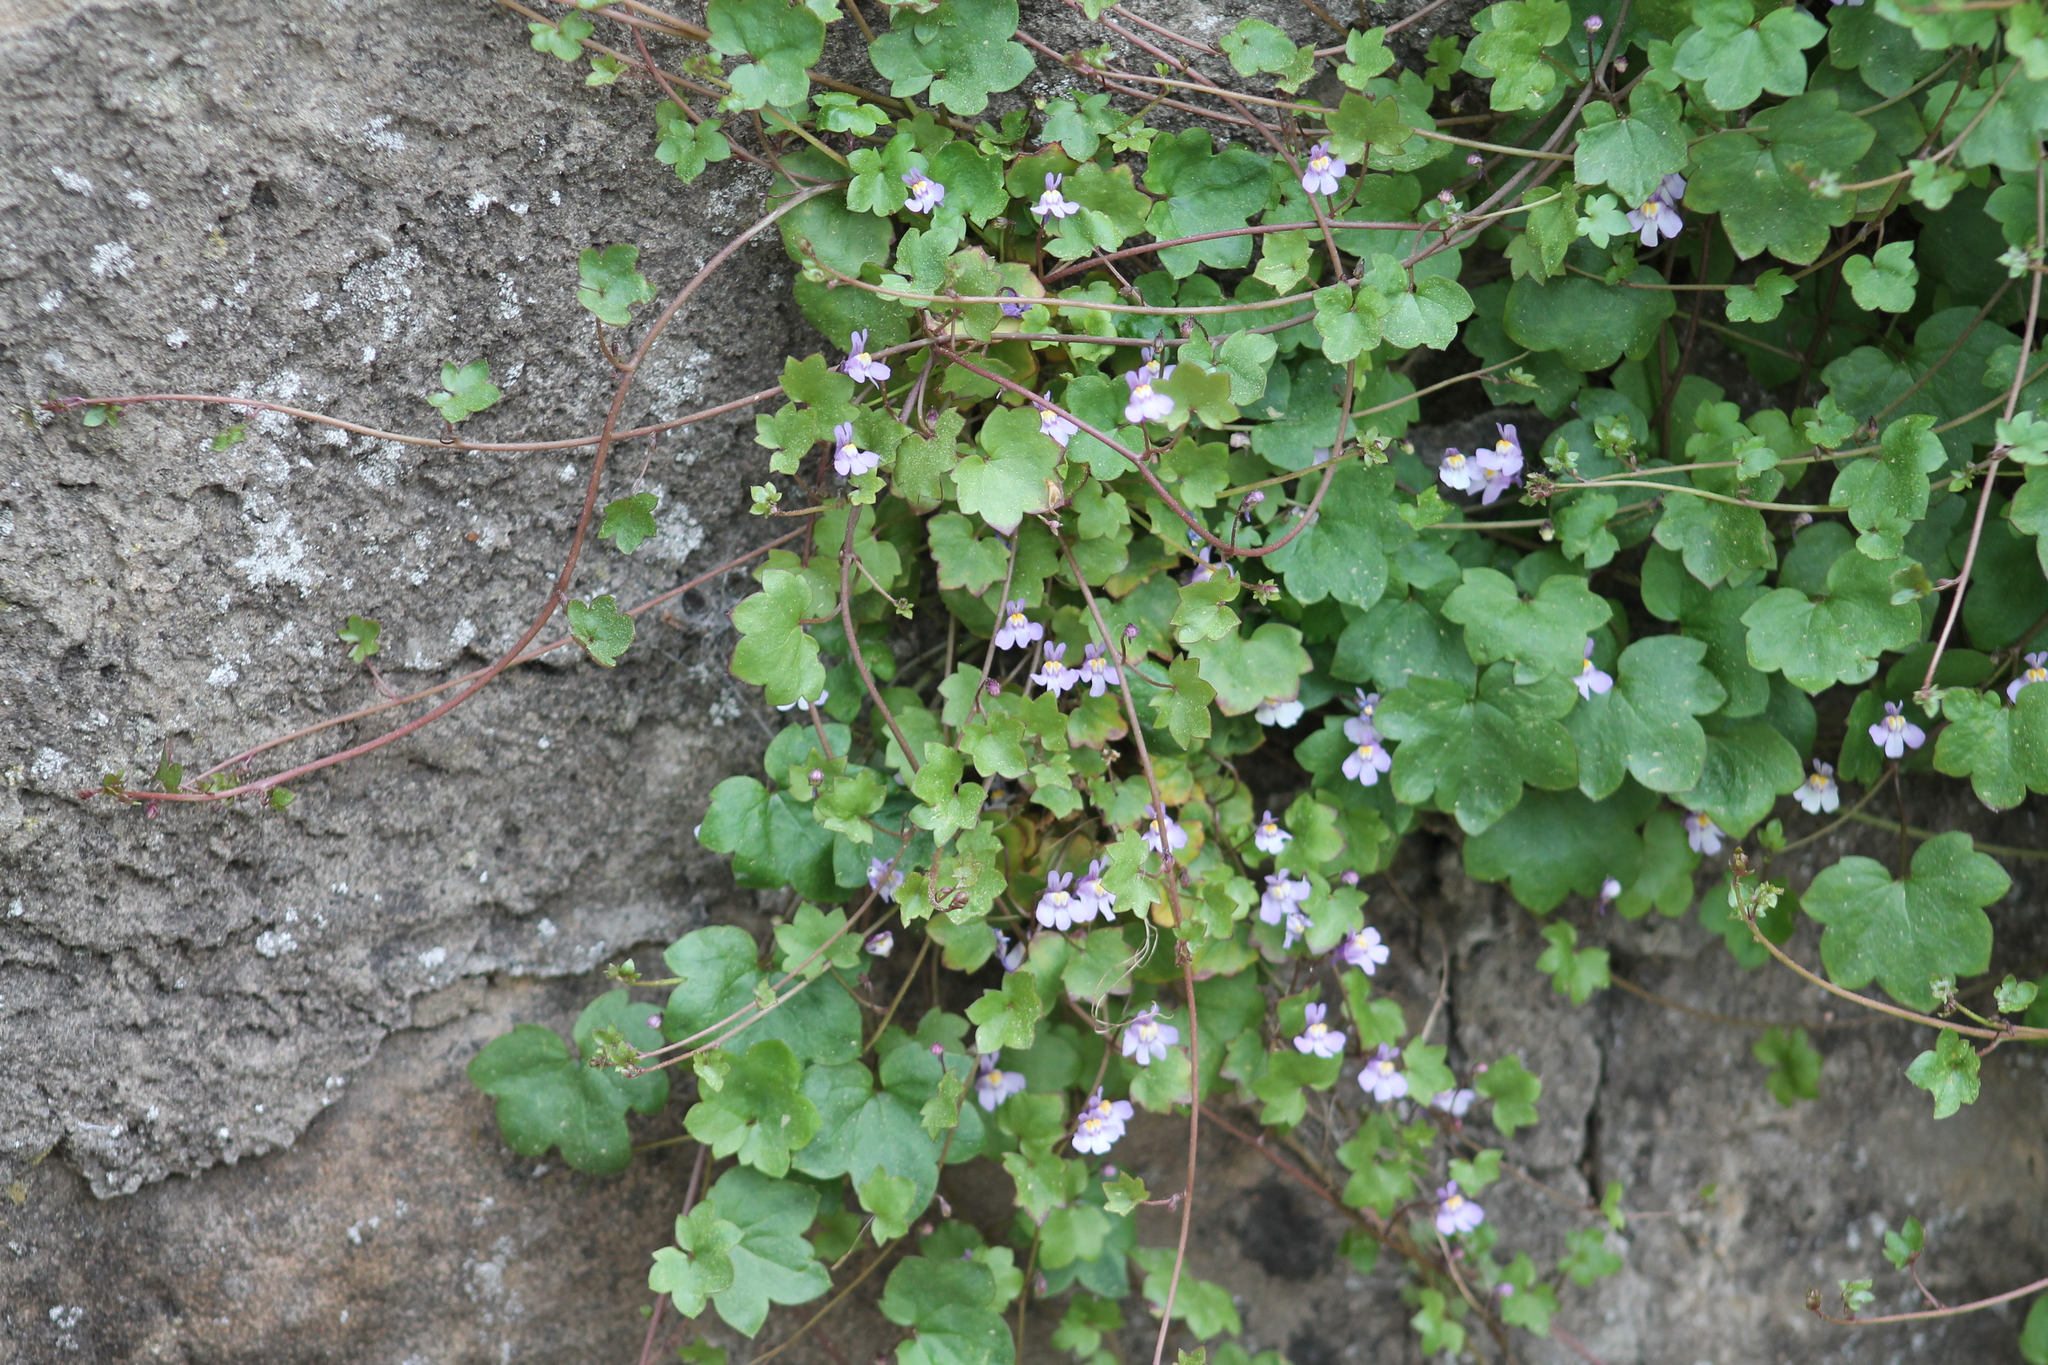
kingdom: Plantae
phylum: Tracheophyta
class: Magnoliopsida
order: Lamiales
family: Plantaginaceae
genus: Cymbalaria
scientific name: Cymbalaria muralis
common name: Ivy-leaved toadflax
